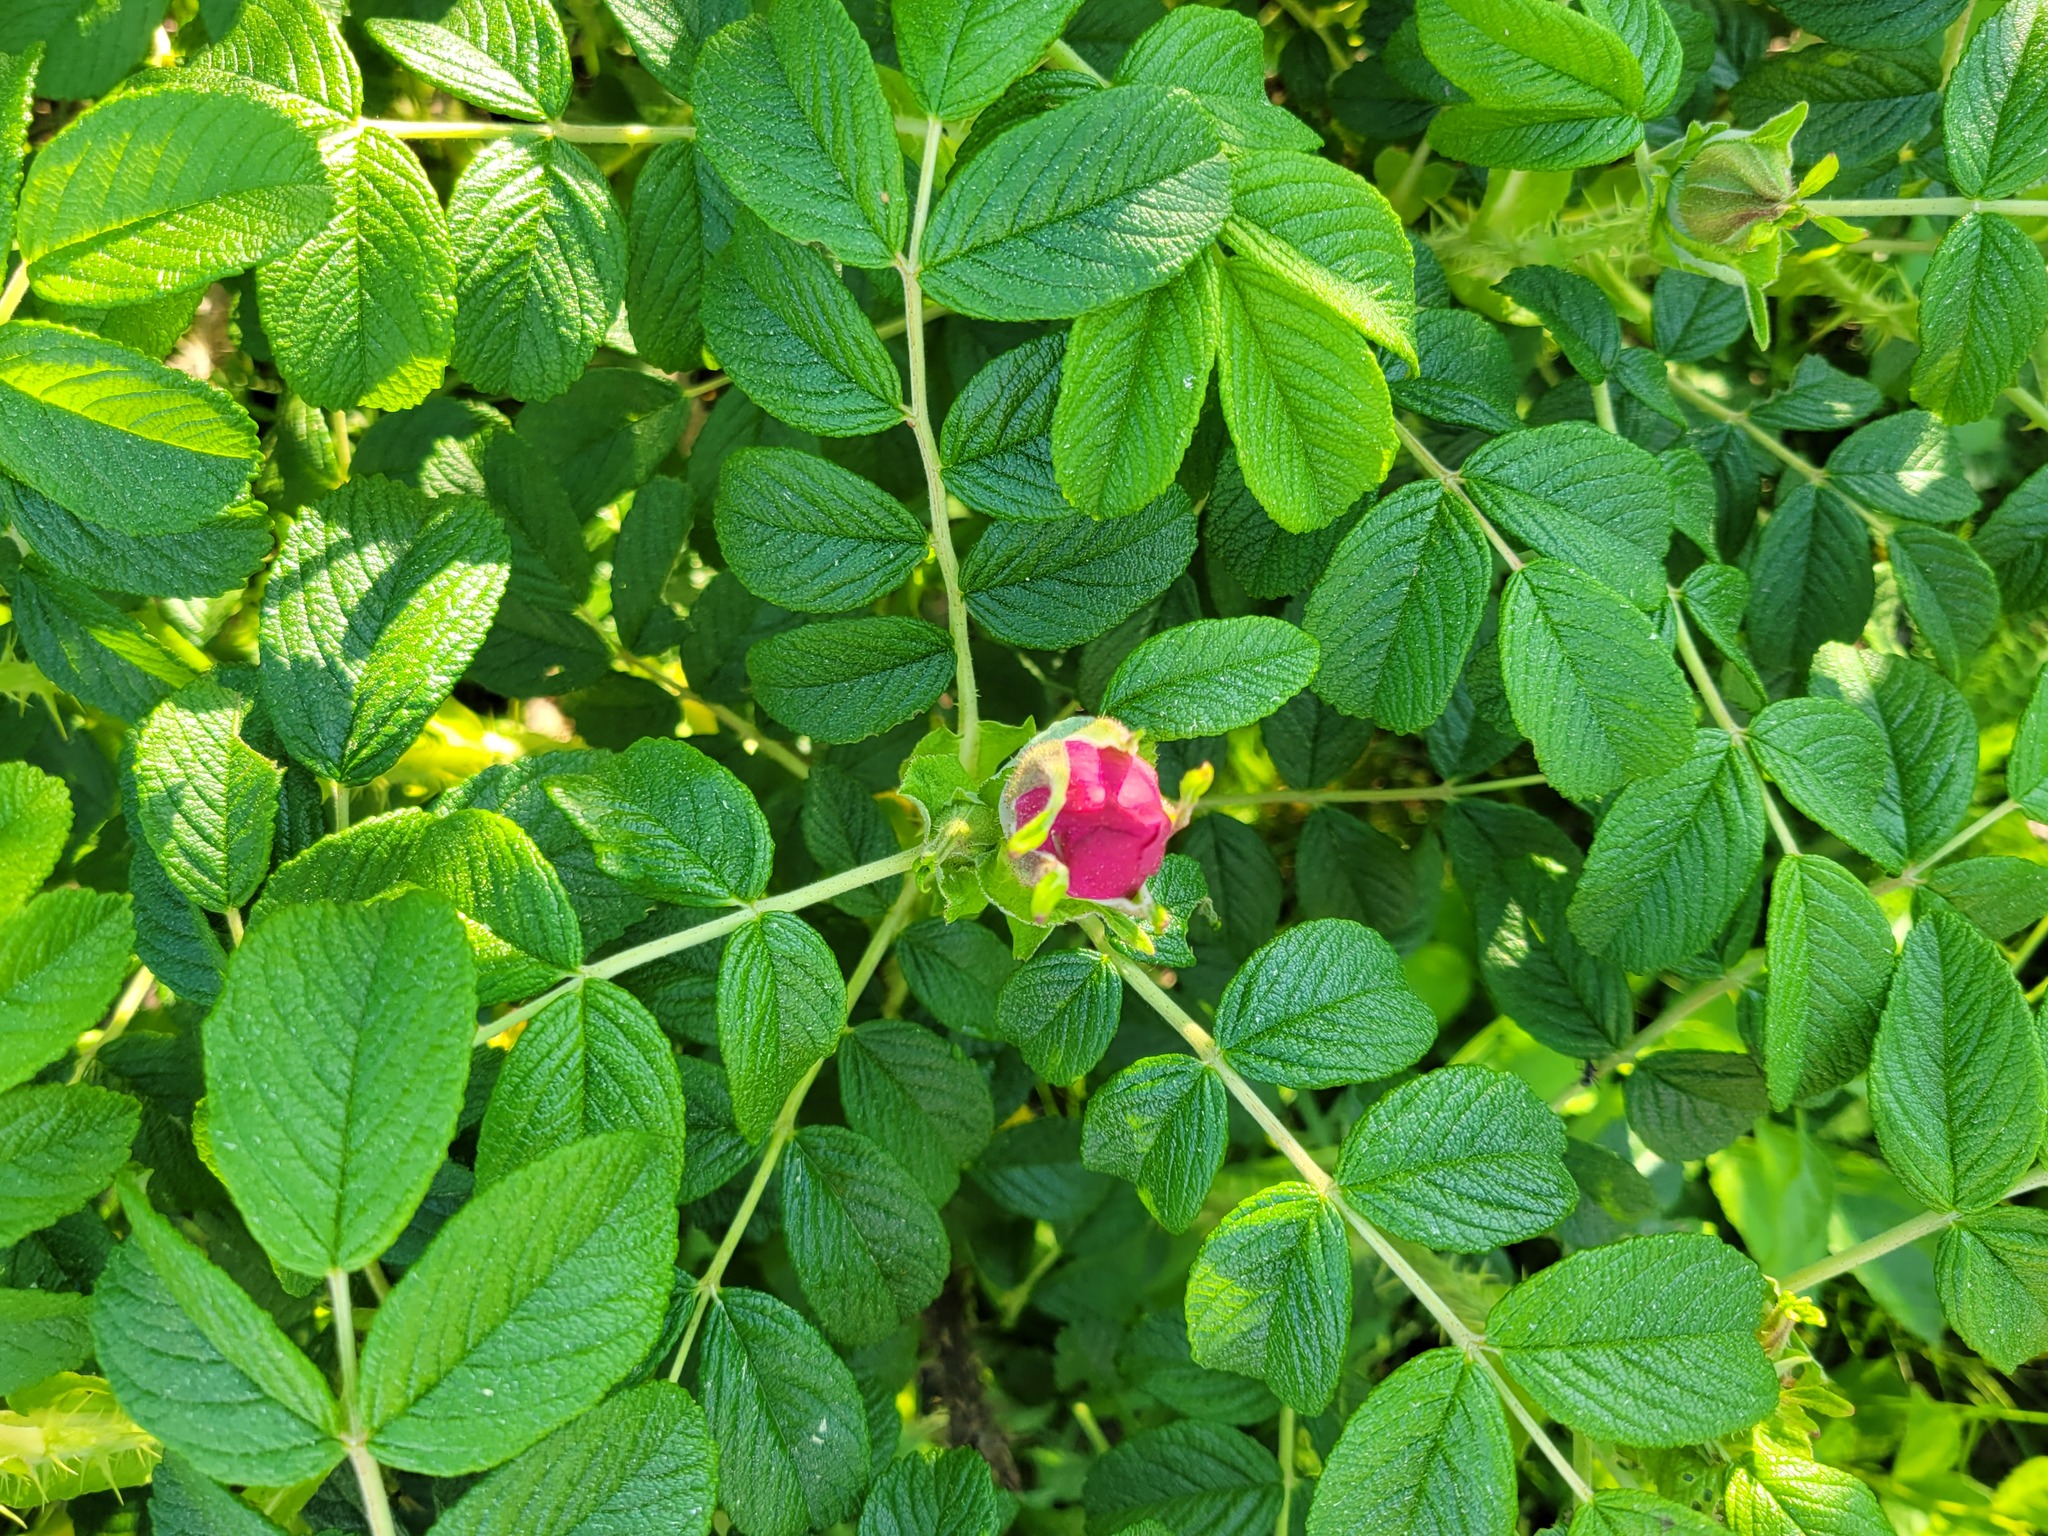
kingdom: Plantae
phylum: Tracheophyta
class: Magnoliopsida
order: Rosales
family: Rosaceae
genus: Rosa
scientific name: Rosa rugosa
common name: Japanese rose
